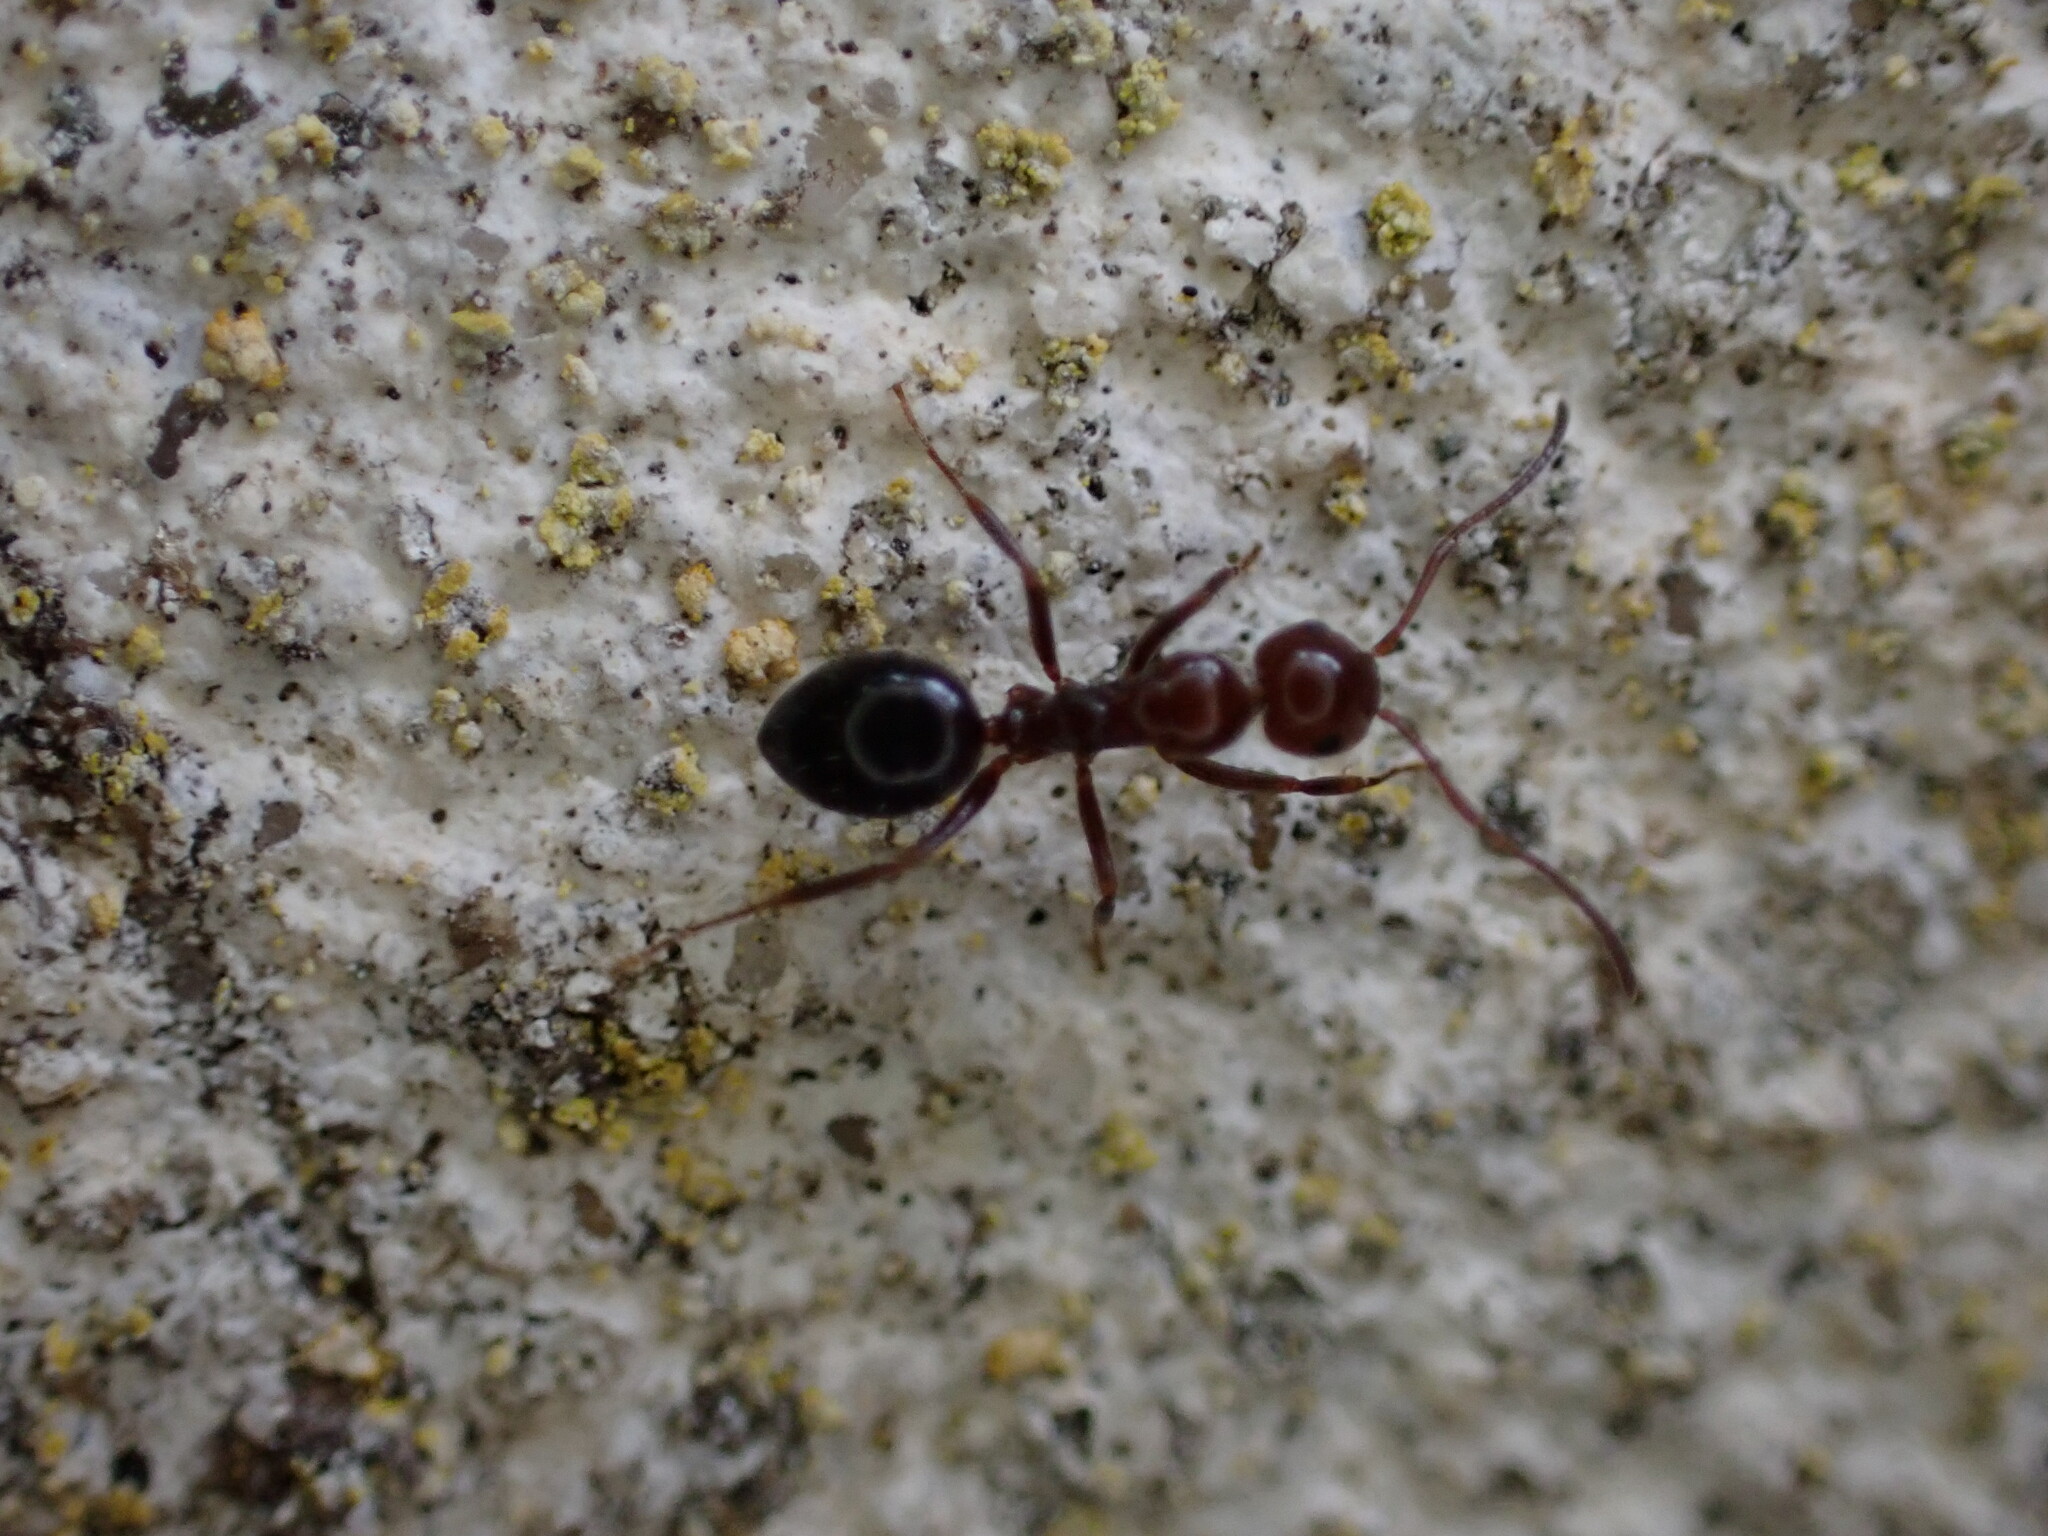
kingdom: Animalia
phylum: Arthropoda
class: Insecta
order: Hymenoptera
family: Formicidae
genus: Camponotus
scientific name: Camponotus lateralis
